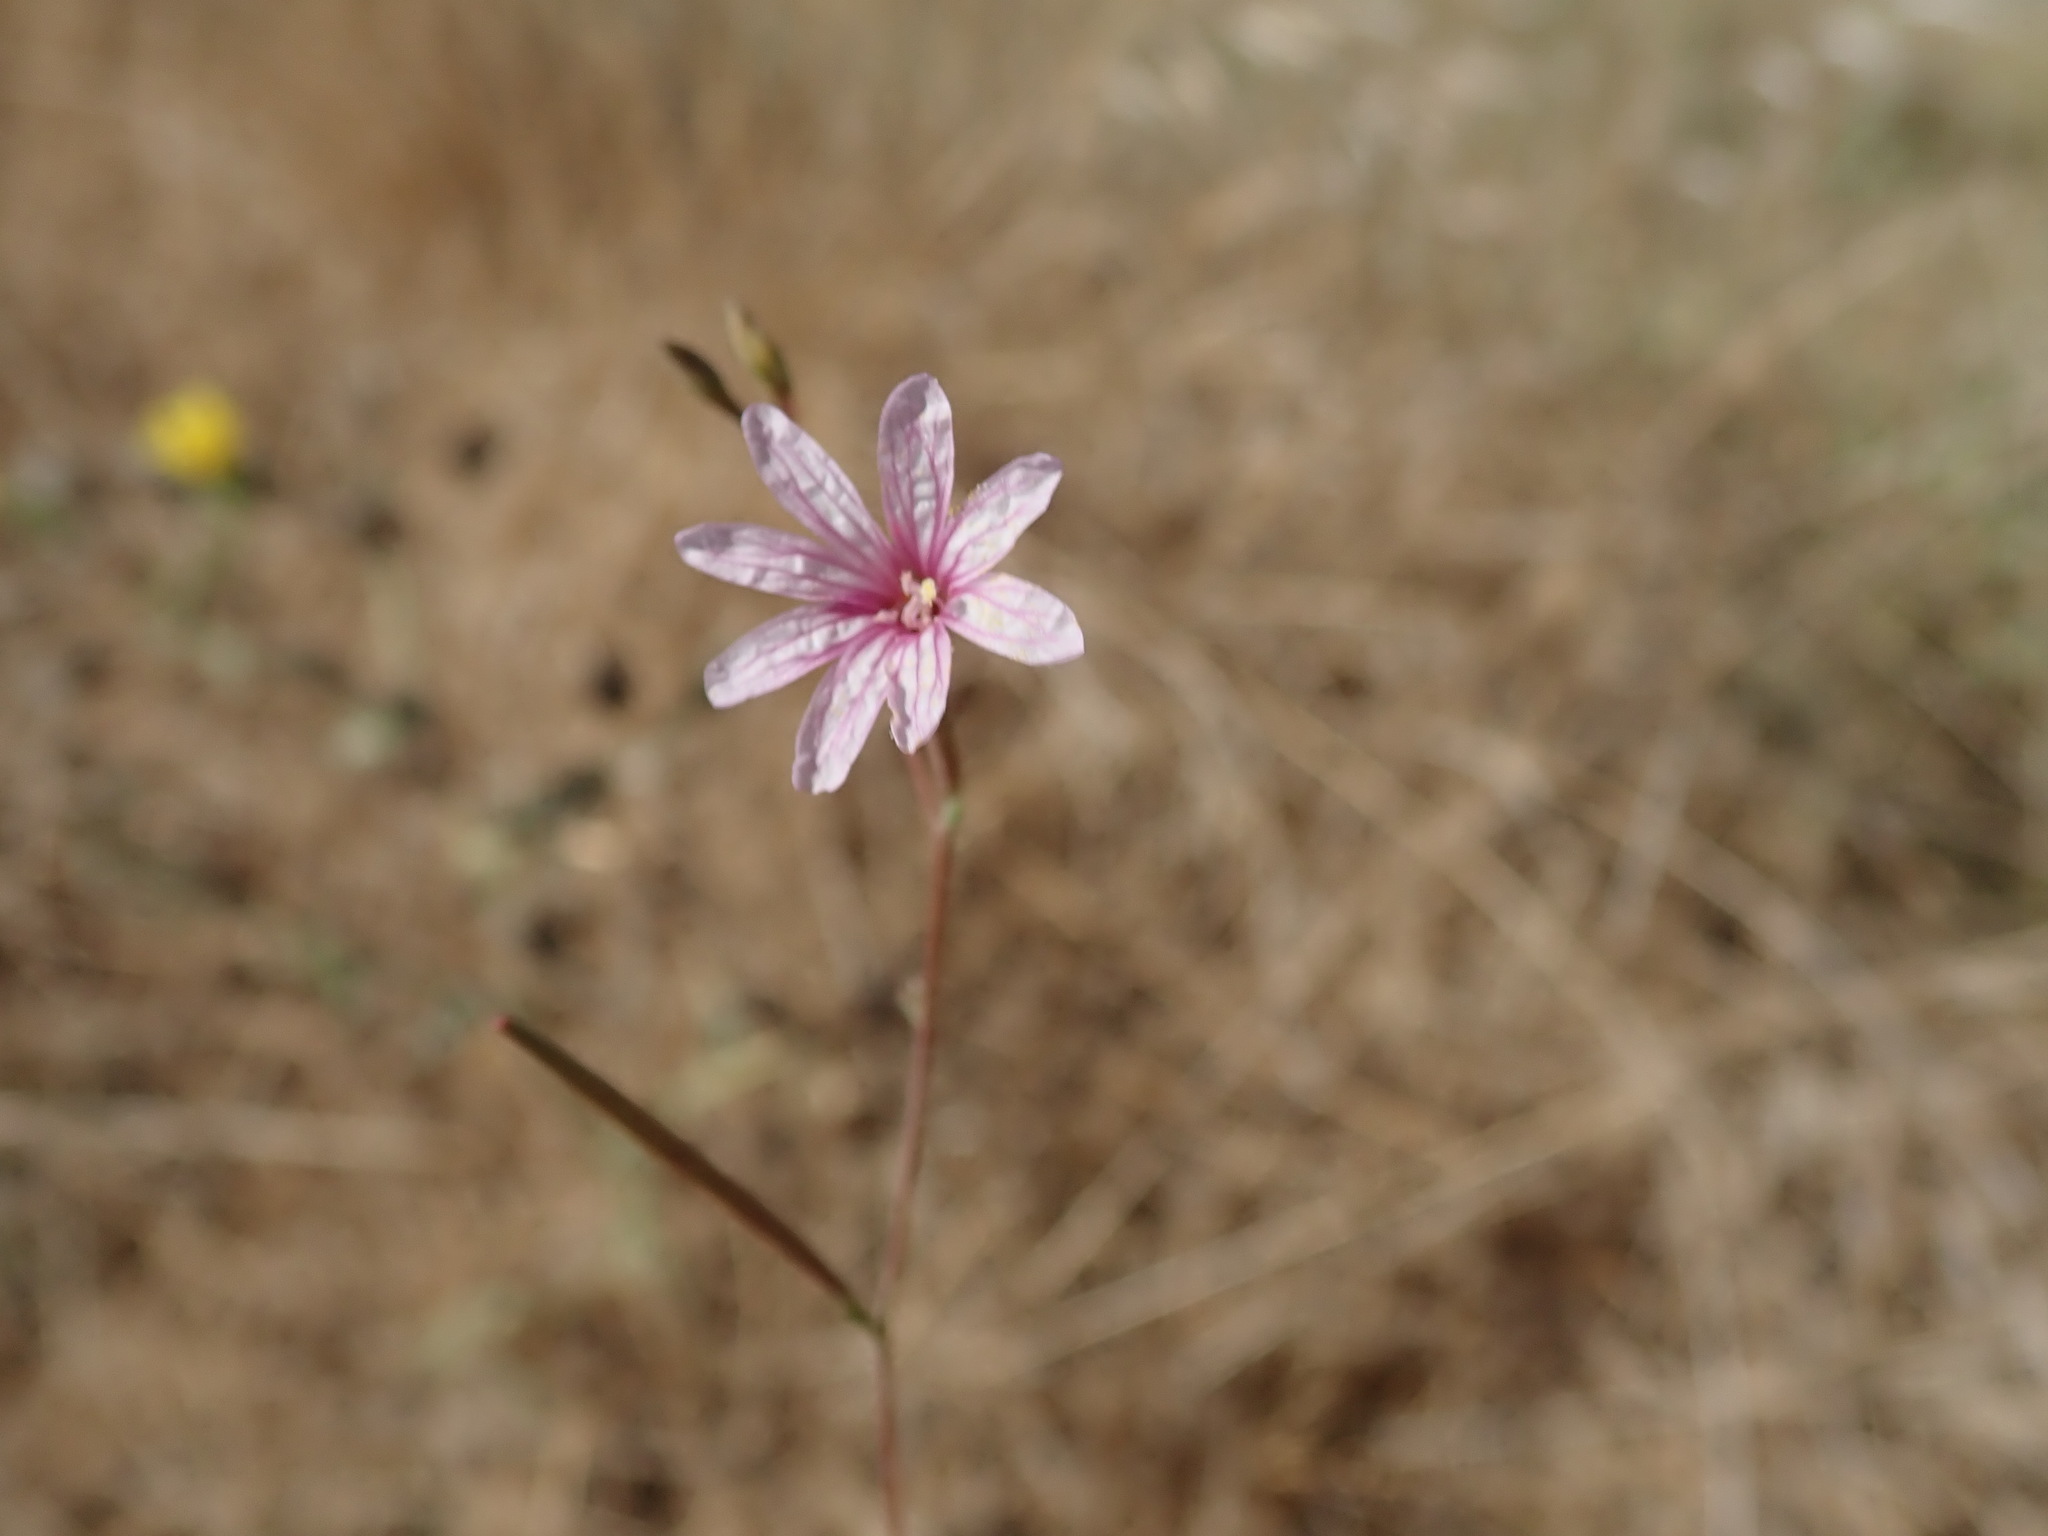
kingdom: Plantae
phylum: Tracheophyta
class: Magnoliopsida
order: Myrtales
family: Onagraceae
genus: Epilobium
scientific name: Epilobium brachycarpum
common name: Annual willowherb
